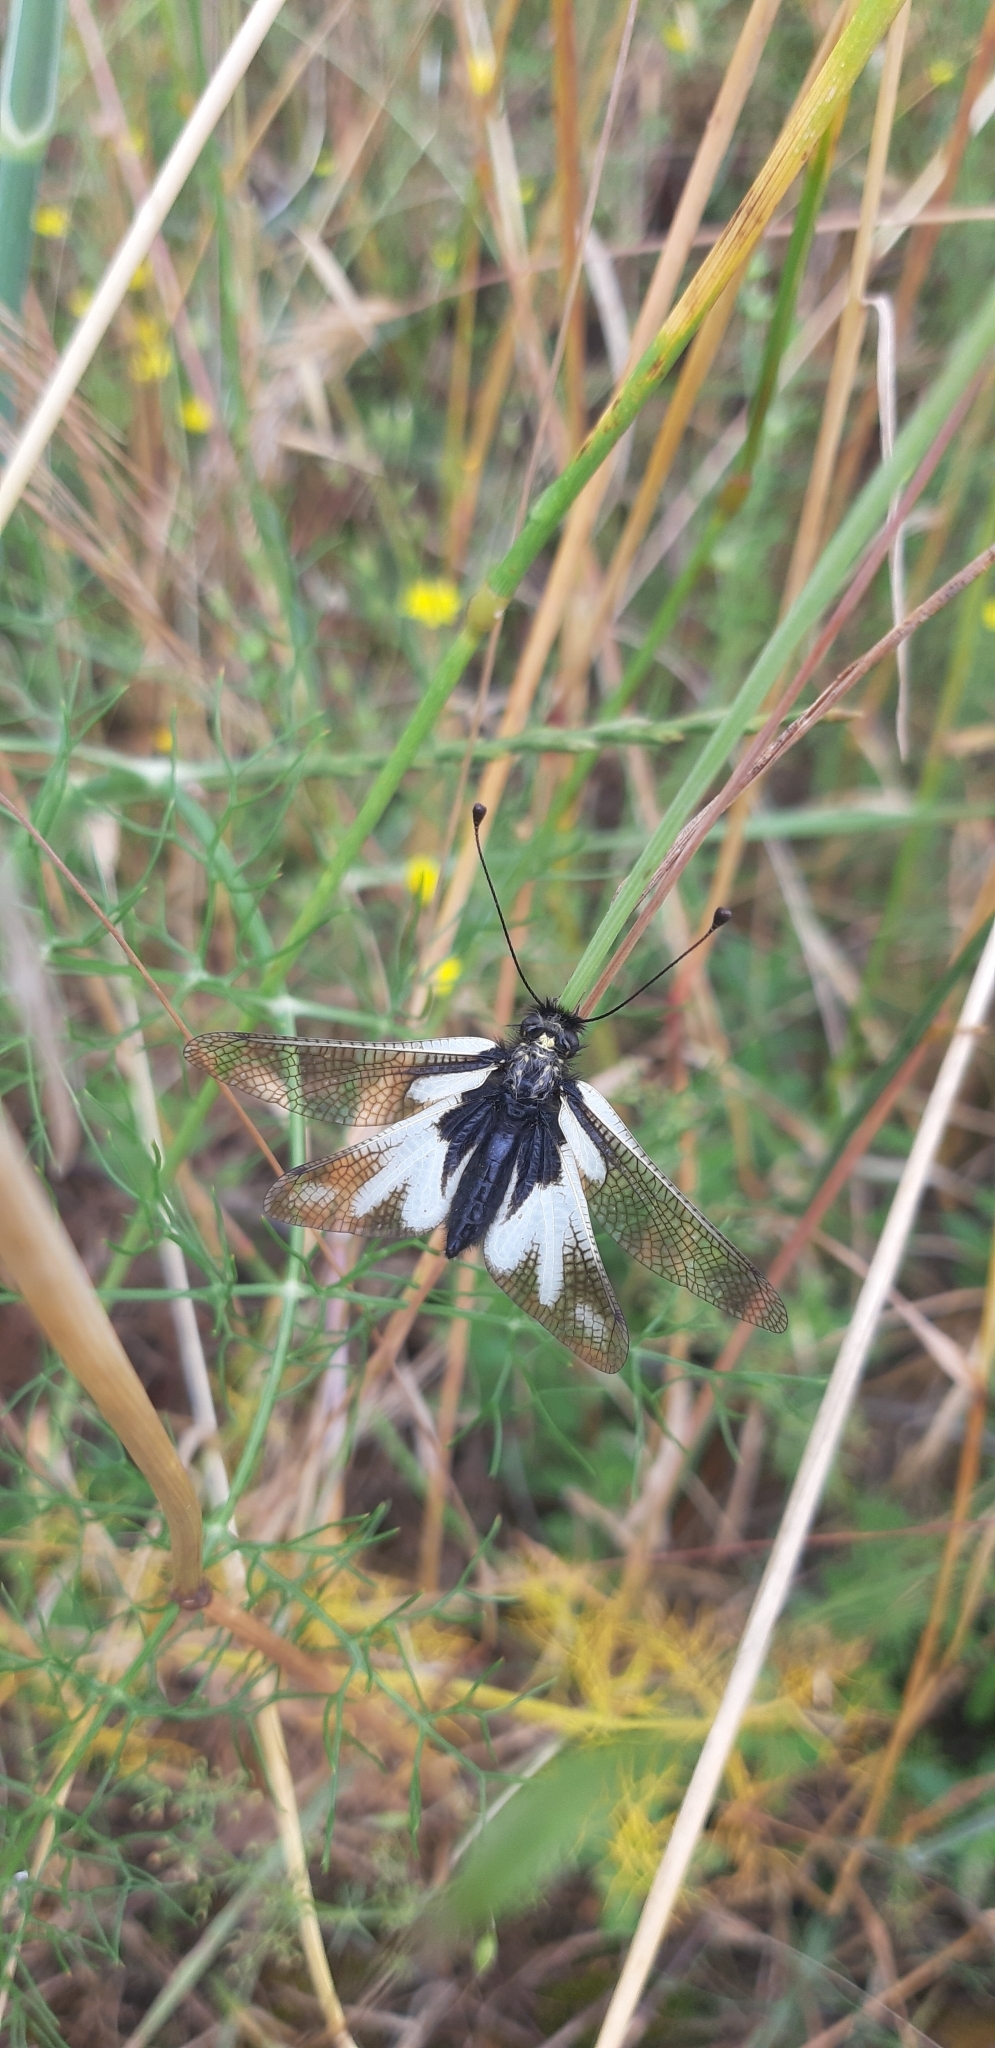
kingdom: Animalia
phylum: Arthropoda
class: Insecta
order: Neuroptera
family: Ascalaphidae
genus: Libelloides
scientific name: Libelloides coccajus
